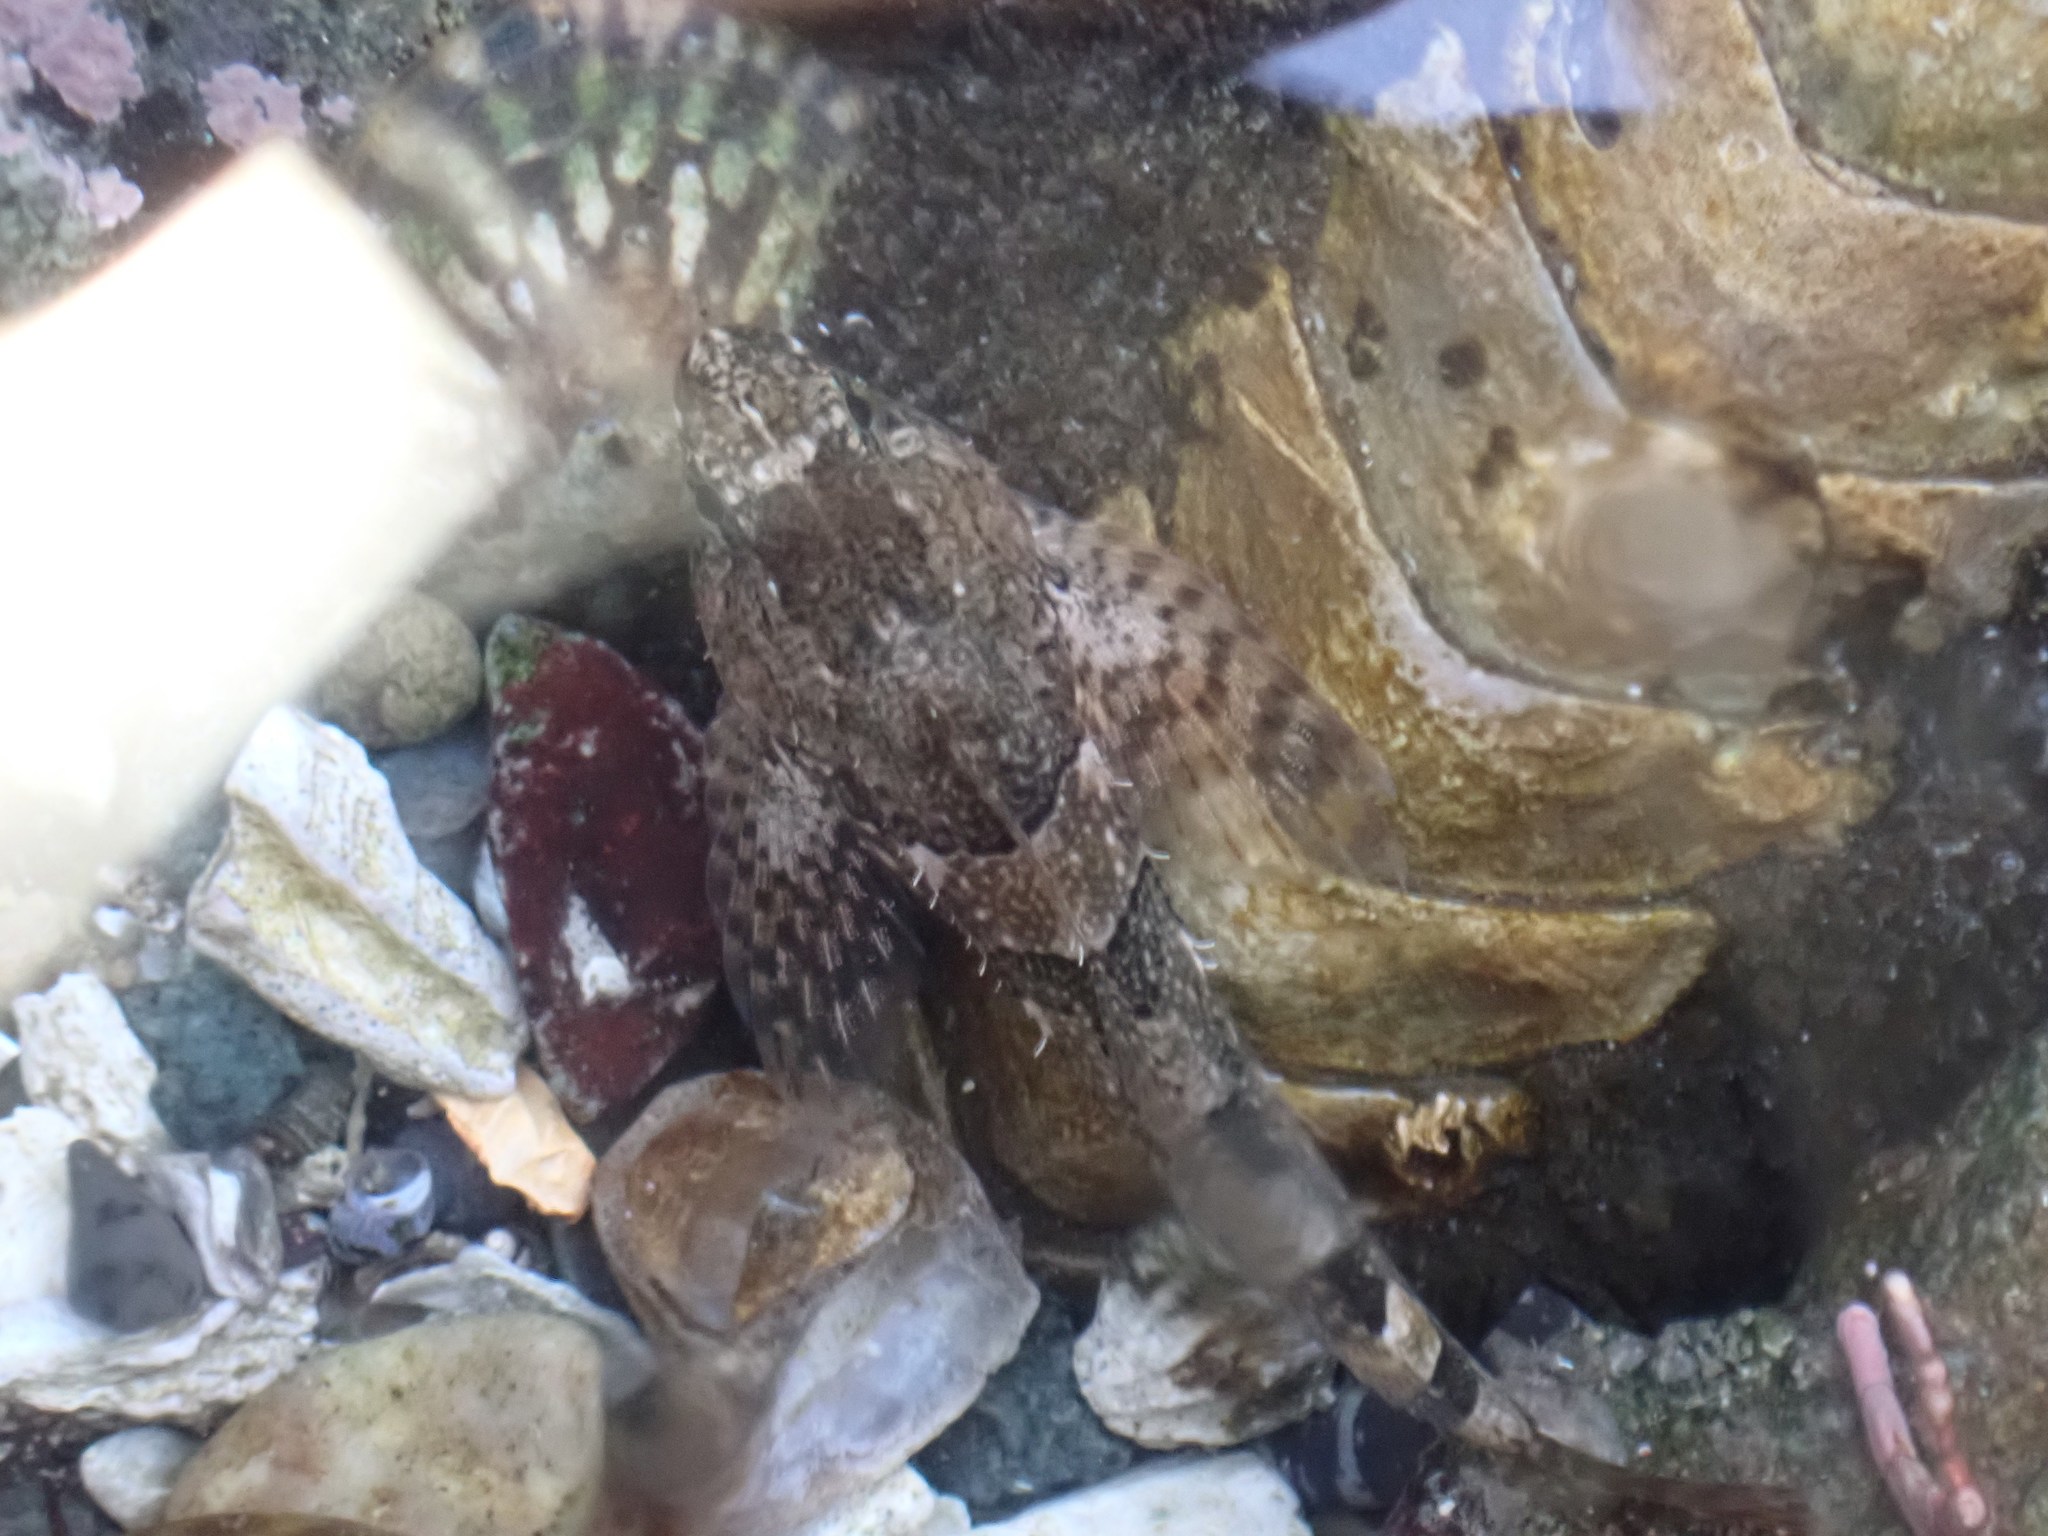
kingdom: Animalia
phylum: Chordata
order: Scorpaeniformes
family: Cottidae
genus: Oligocottus
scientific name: Oligocottus maculosus
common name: Tidepool sculpin
